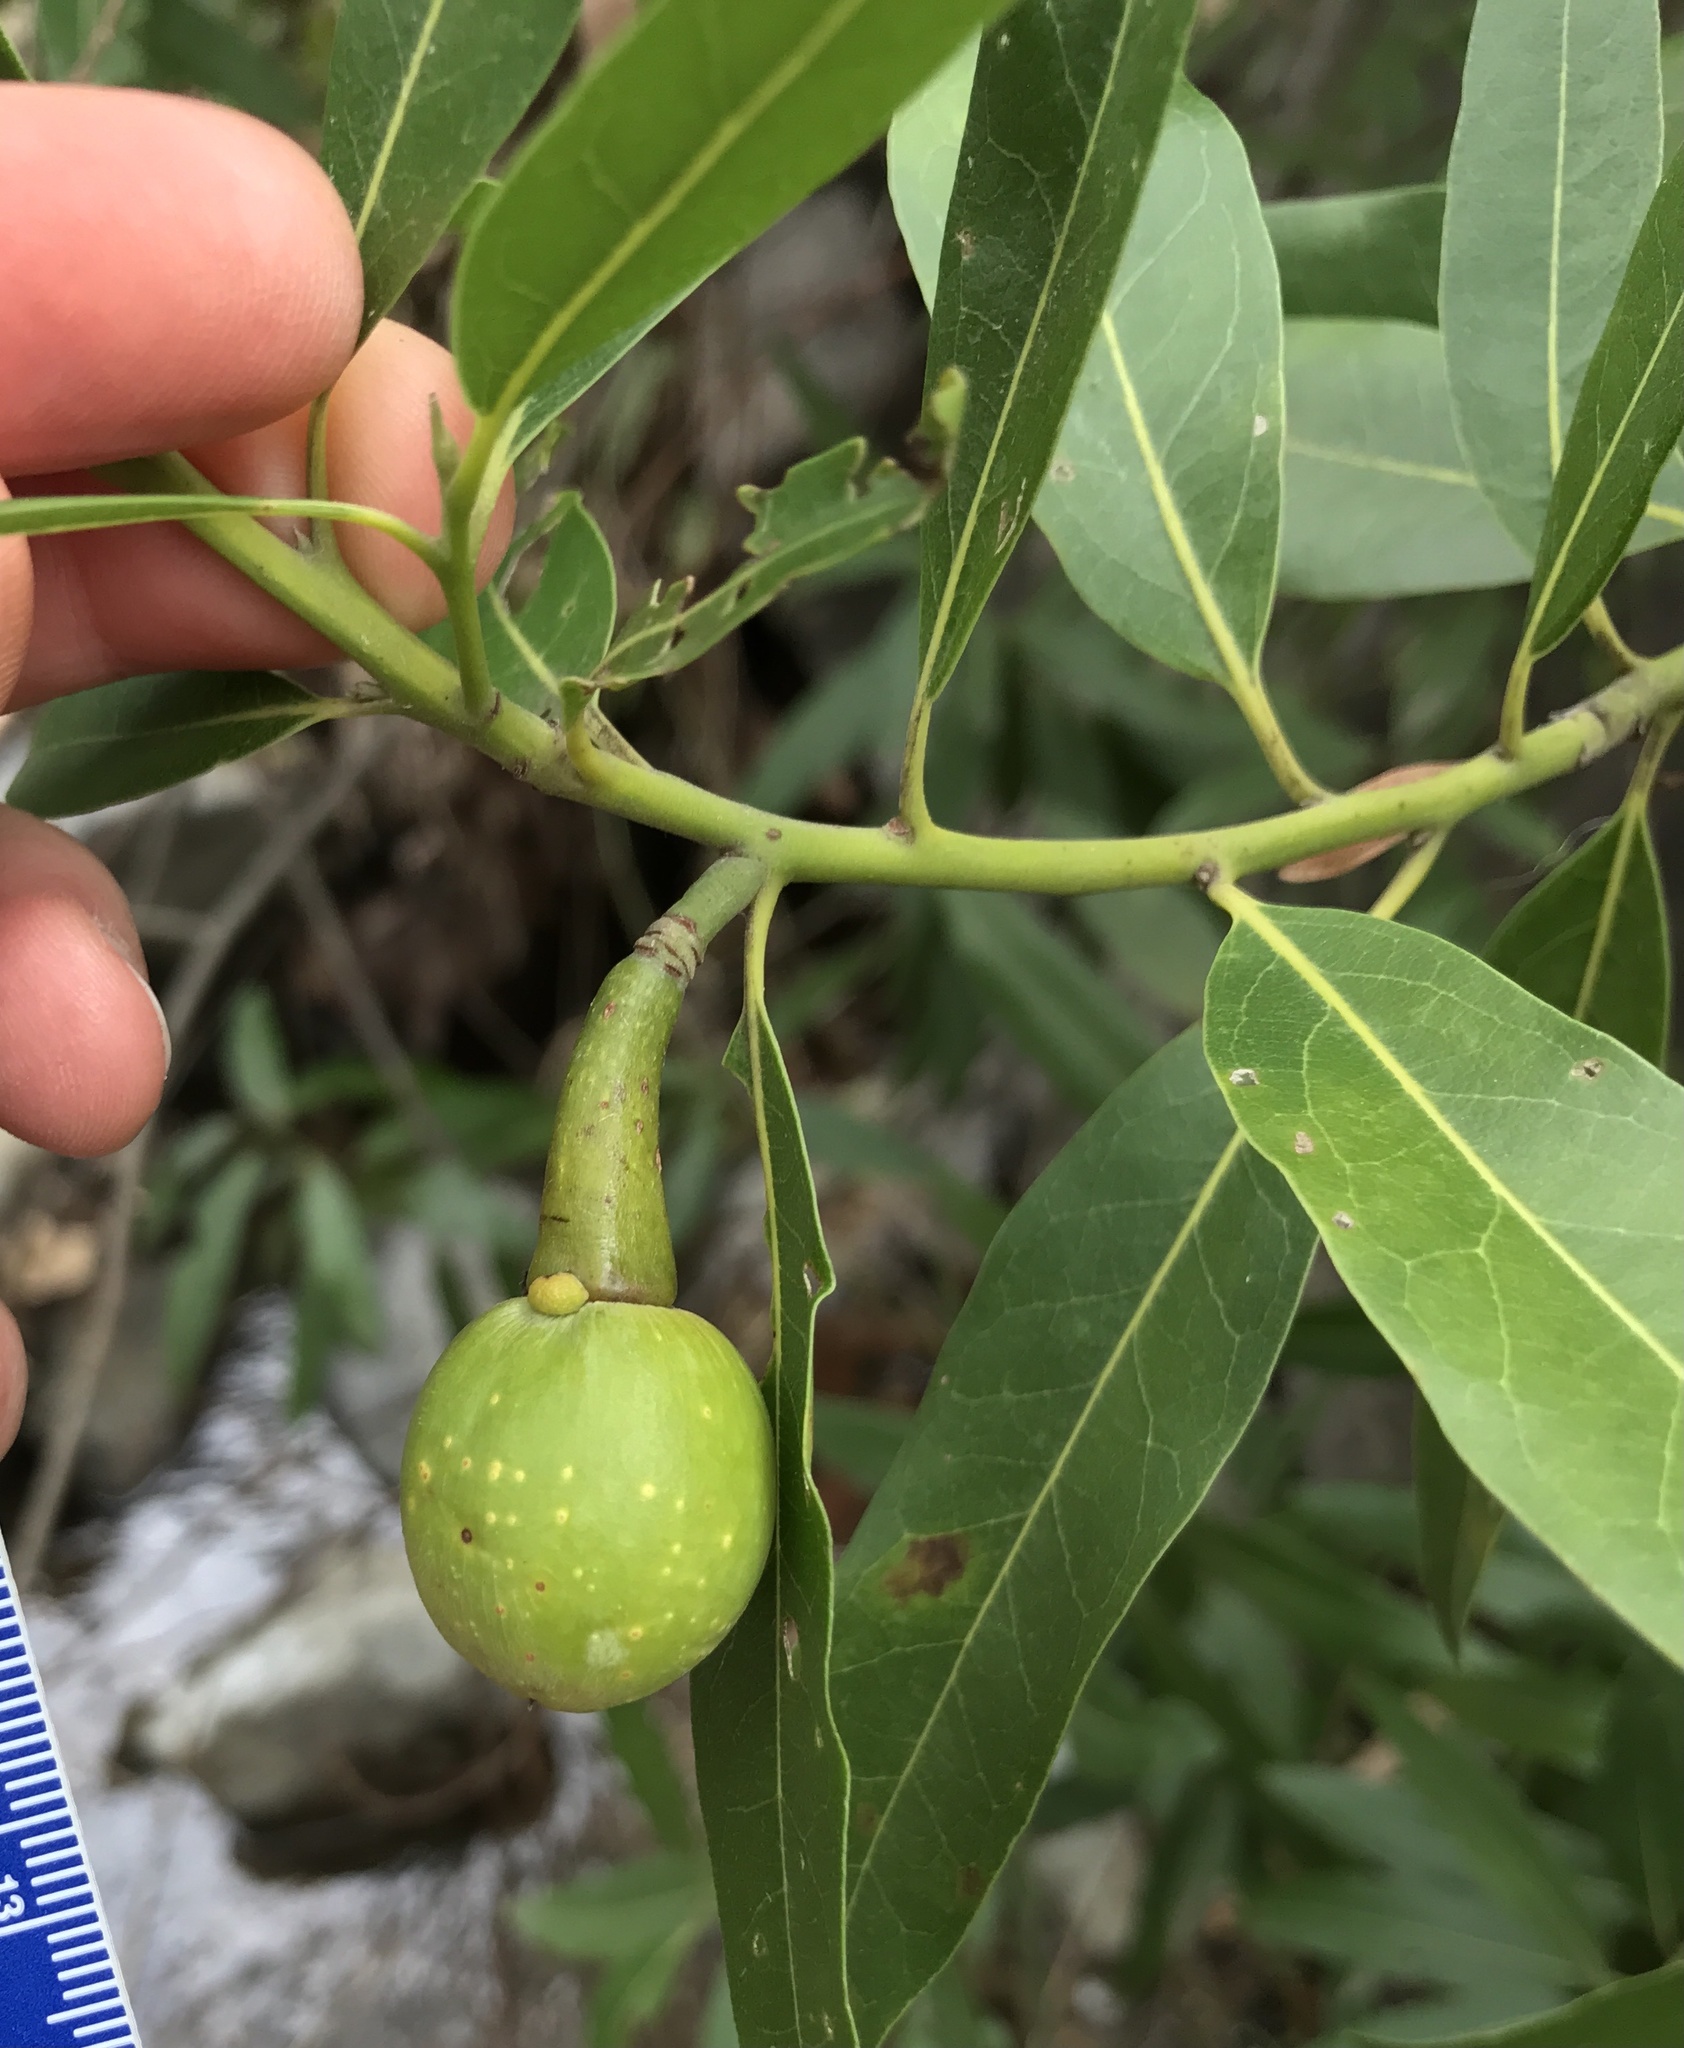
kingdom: Plantae
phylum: Tracheophyta
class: Magnoliopsida
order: Laurales
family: Lauraceae
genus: Umbellularia
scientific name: Umbellularia californica
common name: California bay
